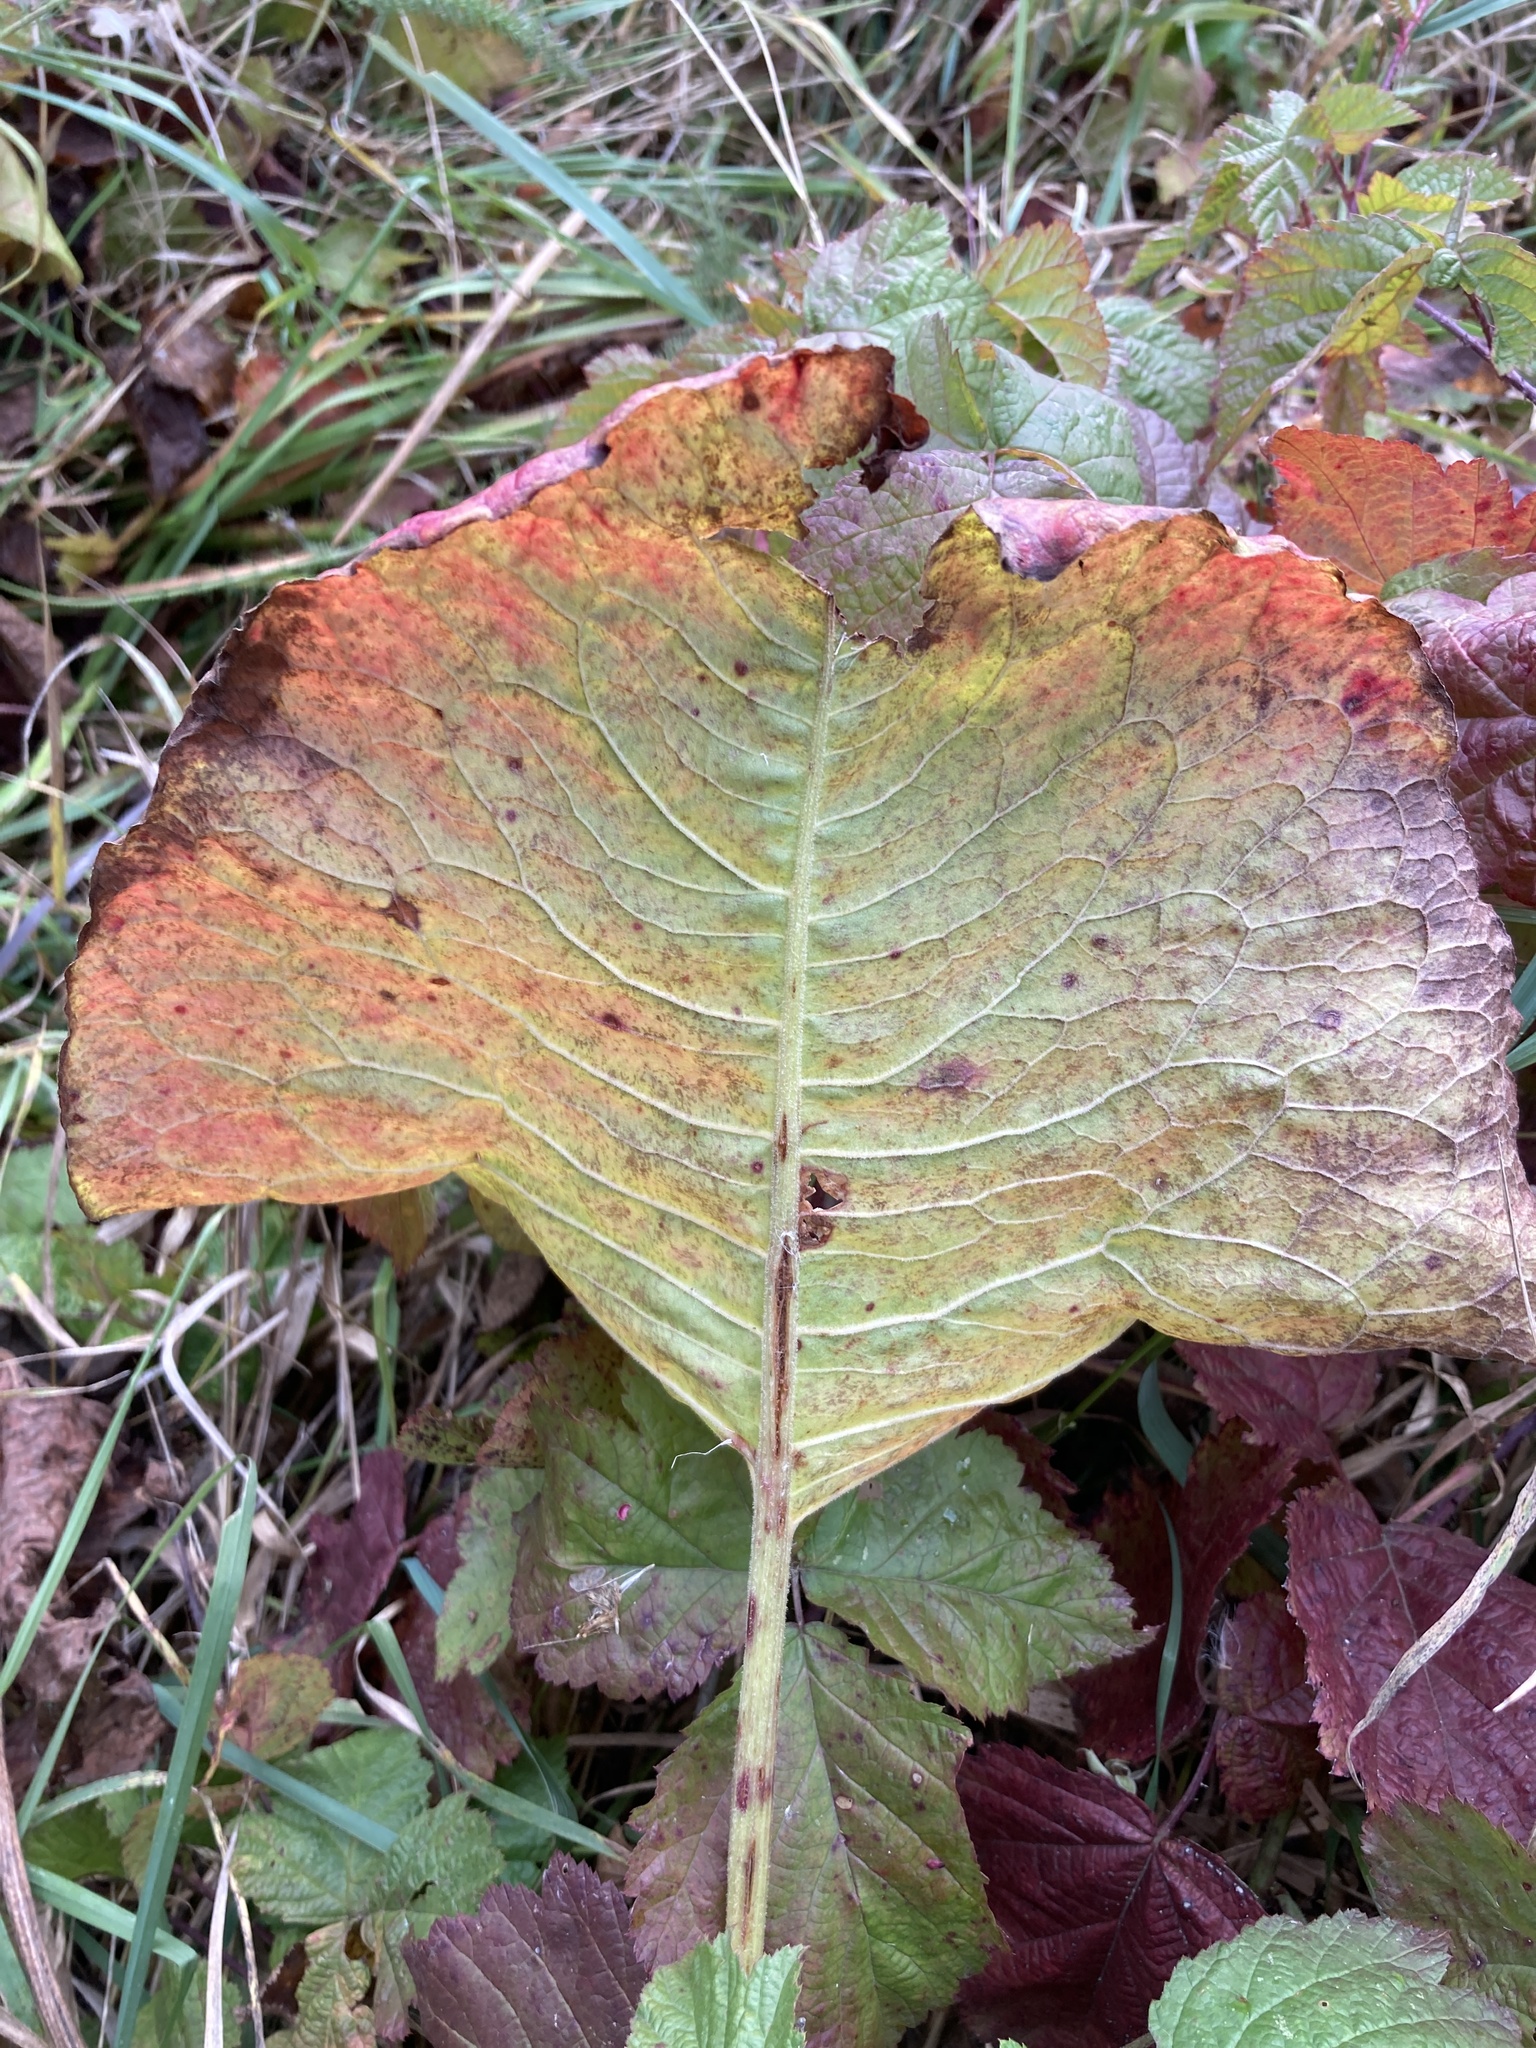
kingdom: Plantae
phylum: Tracheophyta
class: Magnoliopsida
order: Caryophyllales
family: Polygonaceae
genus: Rumex
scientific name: Rumex confertus
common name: Russian dock
